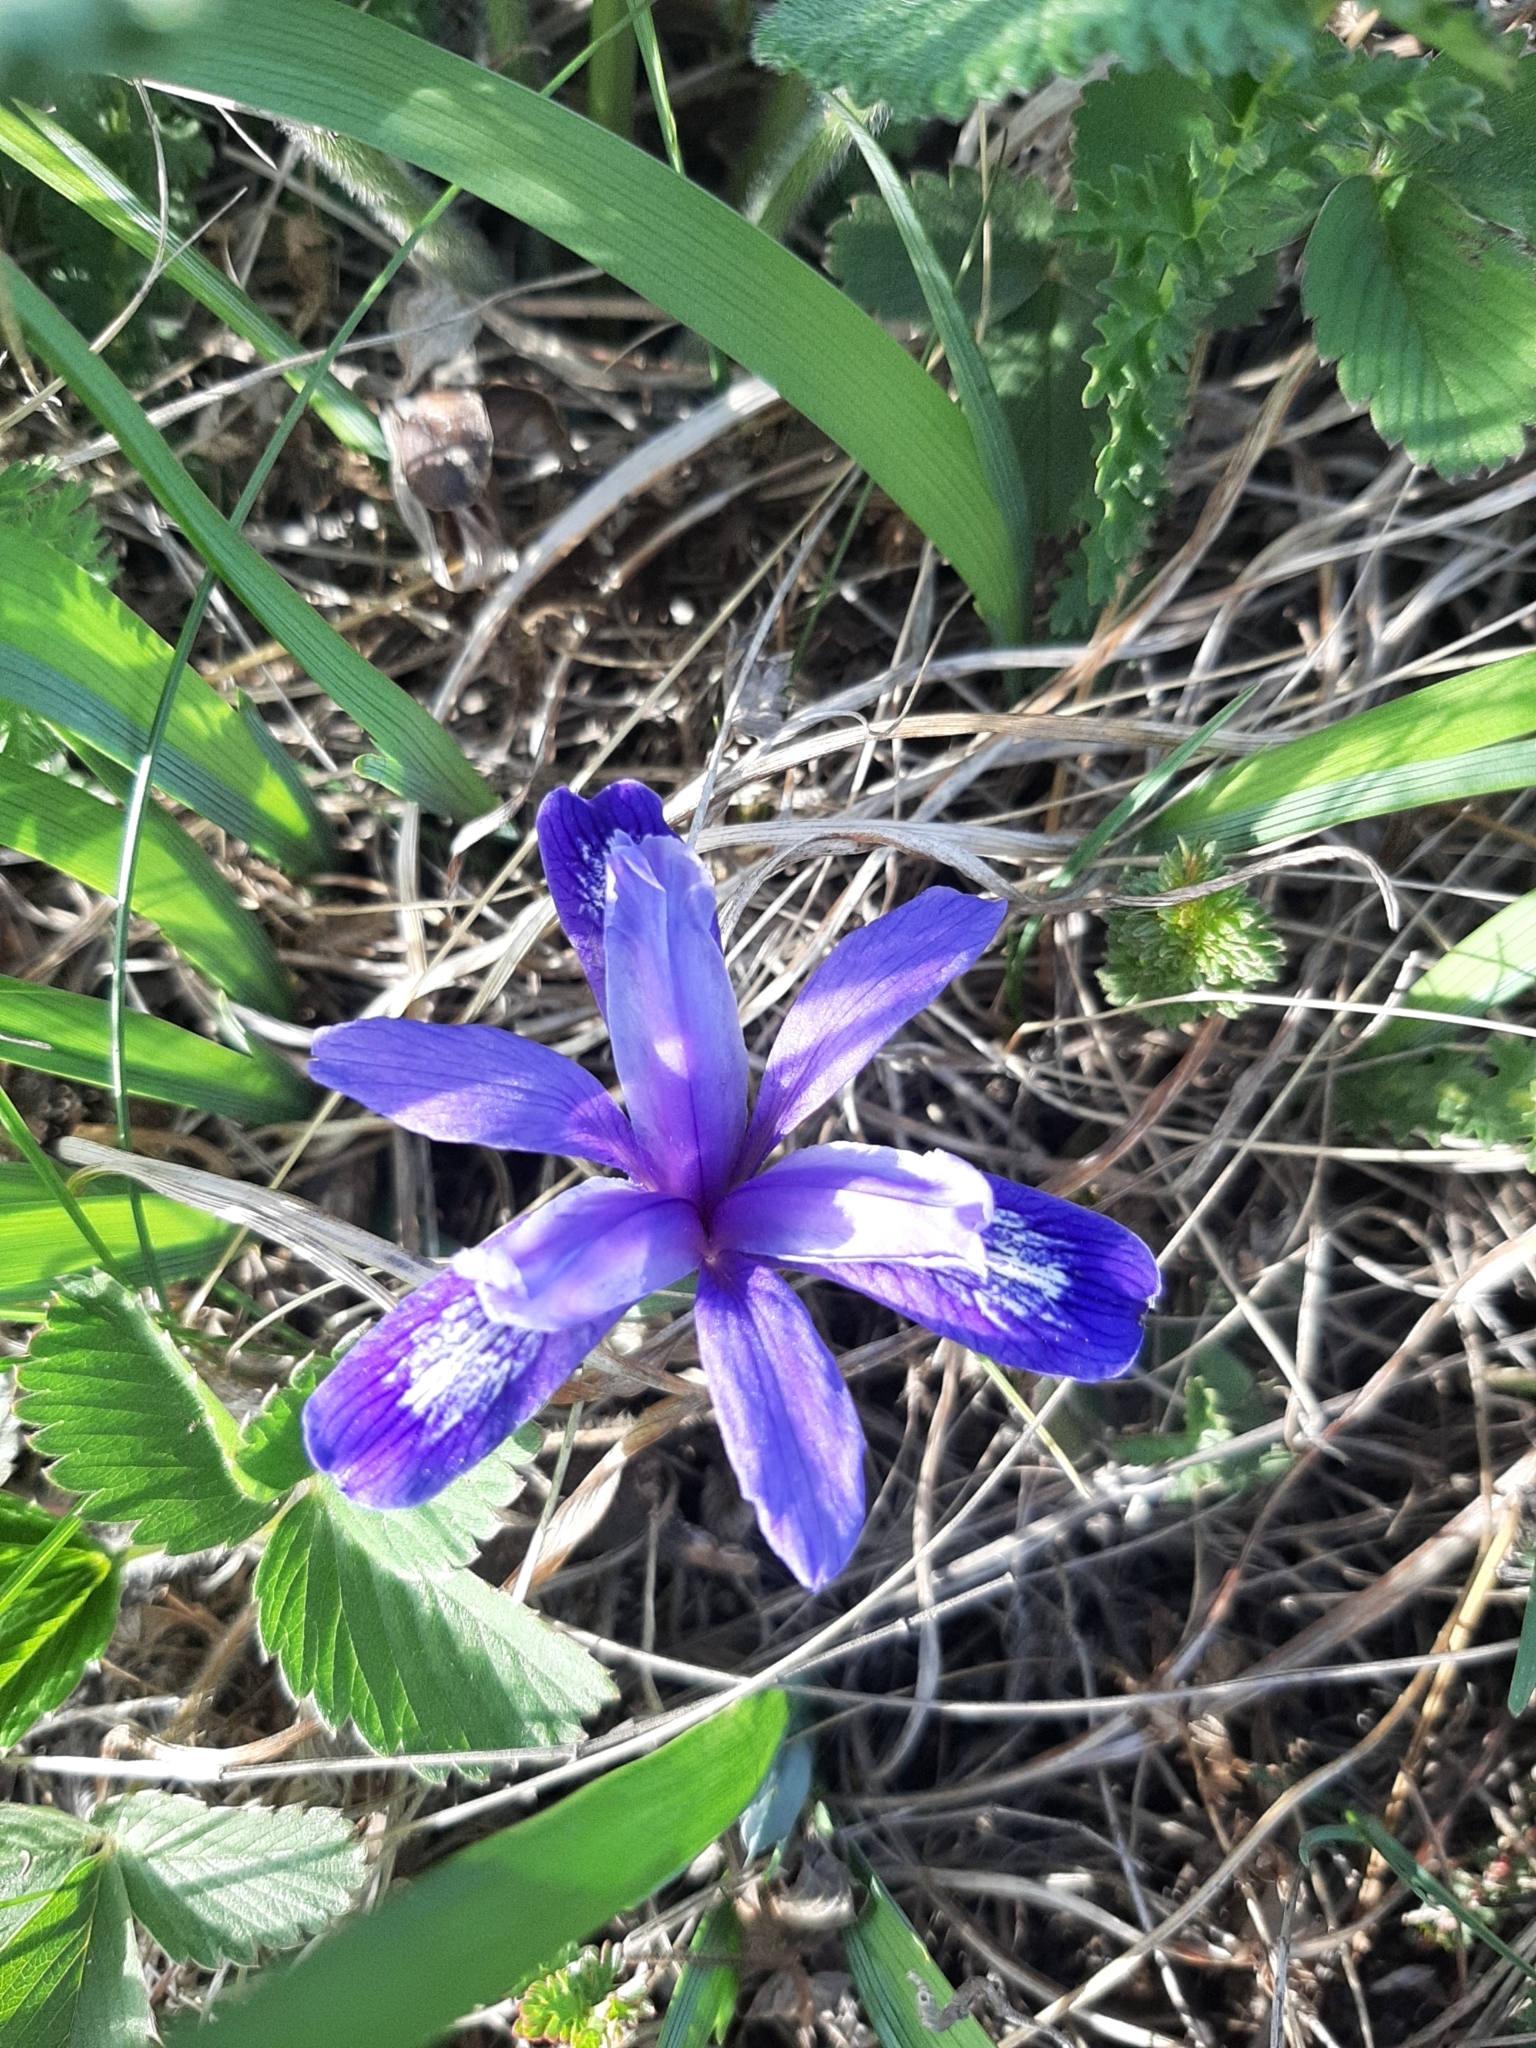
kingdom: Plantae
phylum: Tracheophyta
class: Liliopsida
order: Asparagales
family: Iridaceae
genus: Iris
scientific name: Iris ruthenica
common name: Purple-bract iris
